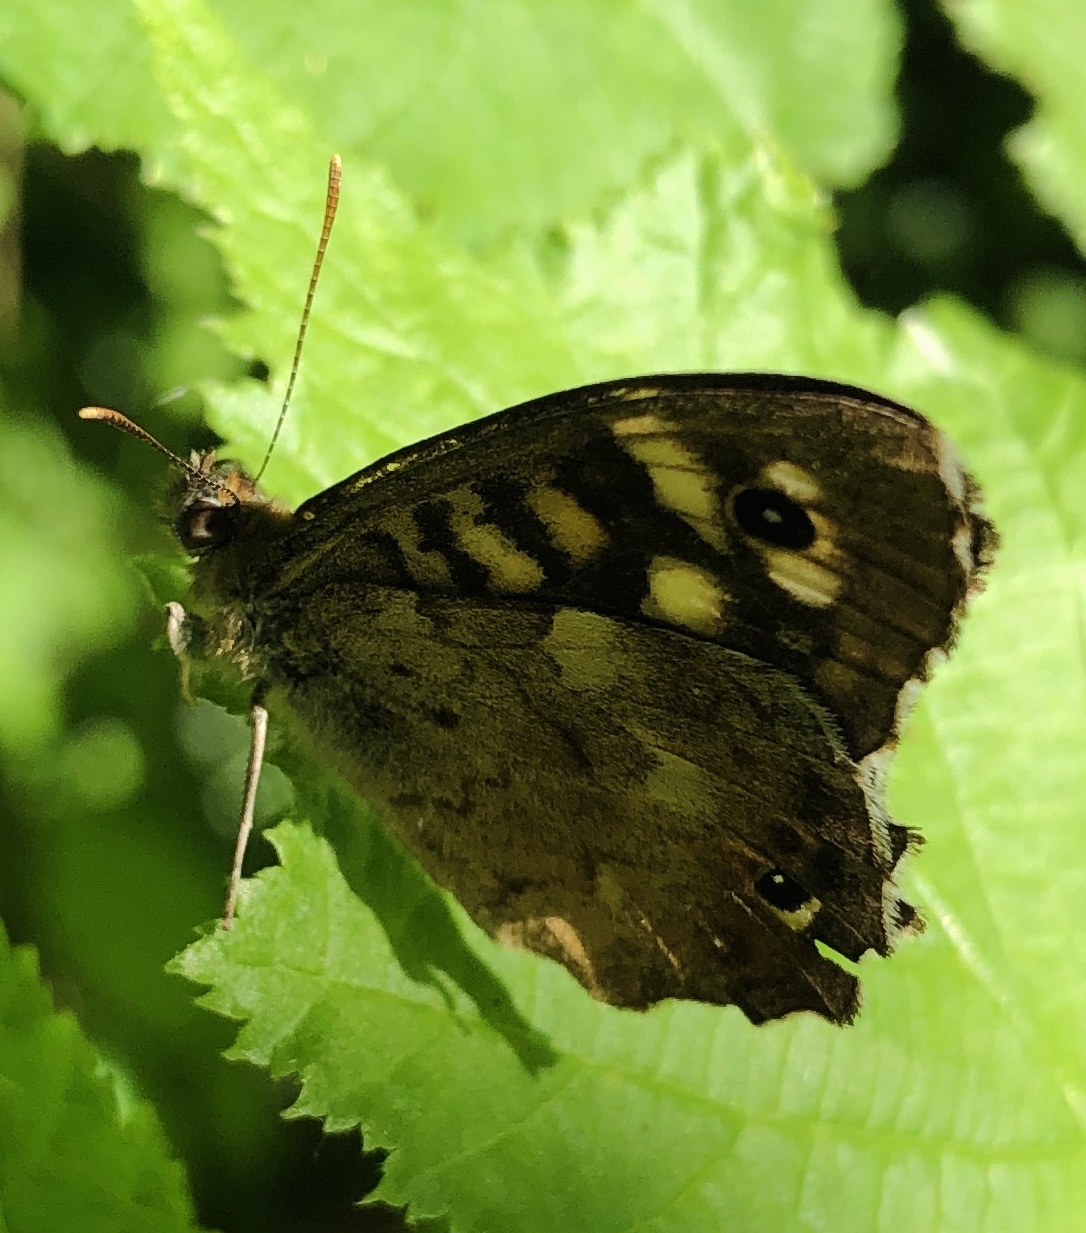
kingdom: Animalia
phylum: Arthropoda
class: Insecta
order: Lepidoptera
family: Nymphalidae
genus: Pararge
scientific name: Pararge aegeria
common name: Speckled wood
